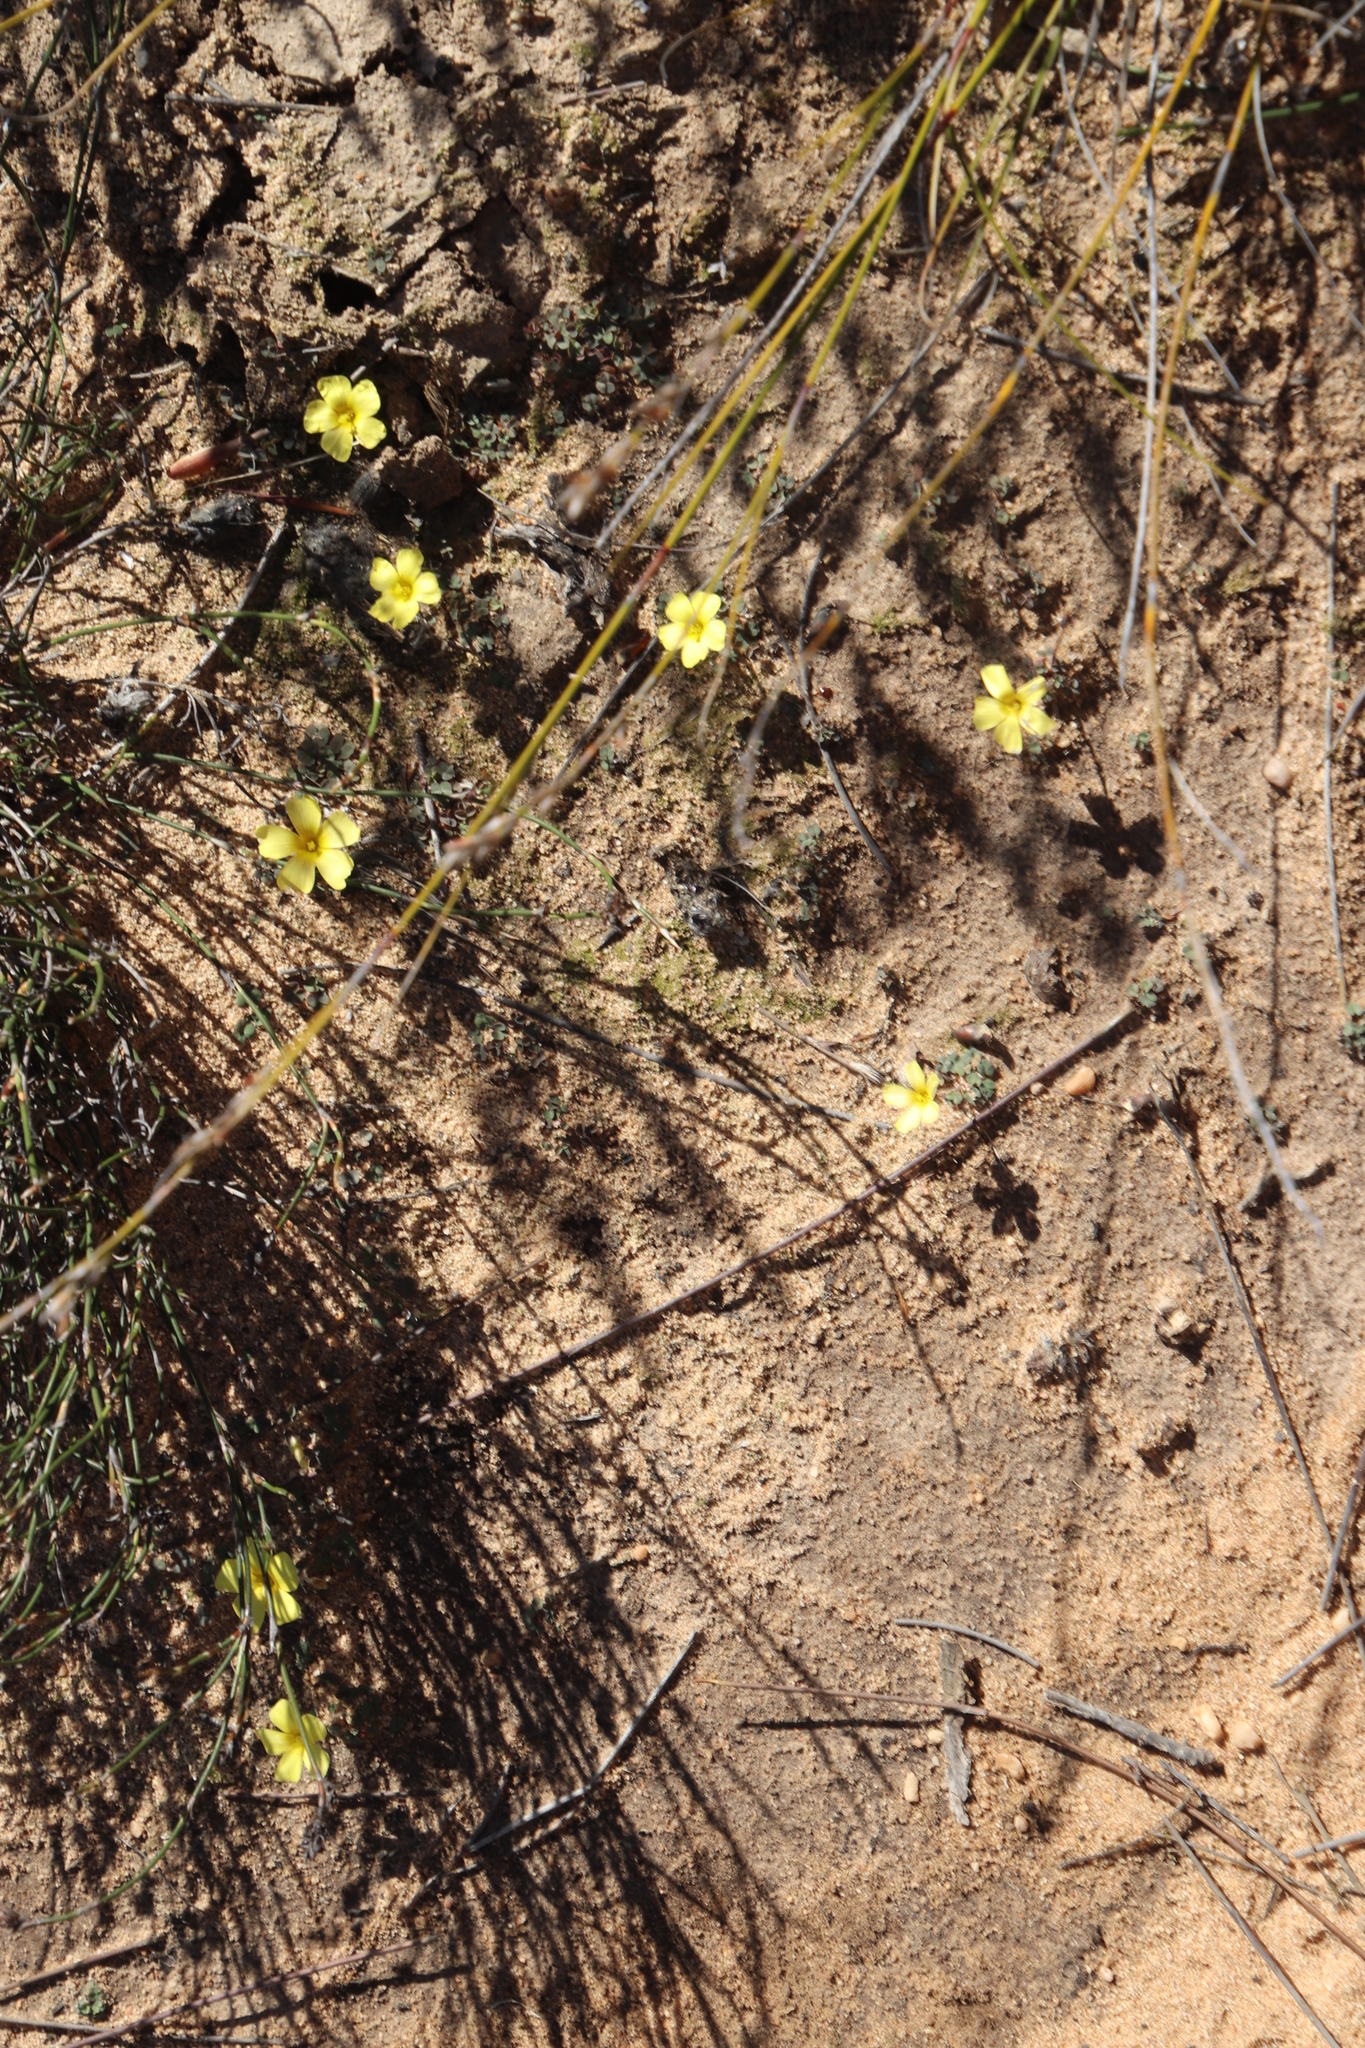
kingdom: Plantae
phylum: Tracheophyta
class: Magnoliopsida
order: Oxalidales
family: Oxalidaceae
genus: Oxalis
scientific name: Oxalis obtusa
